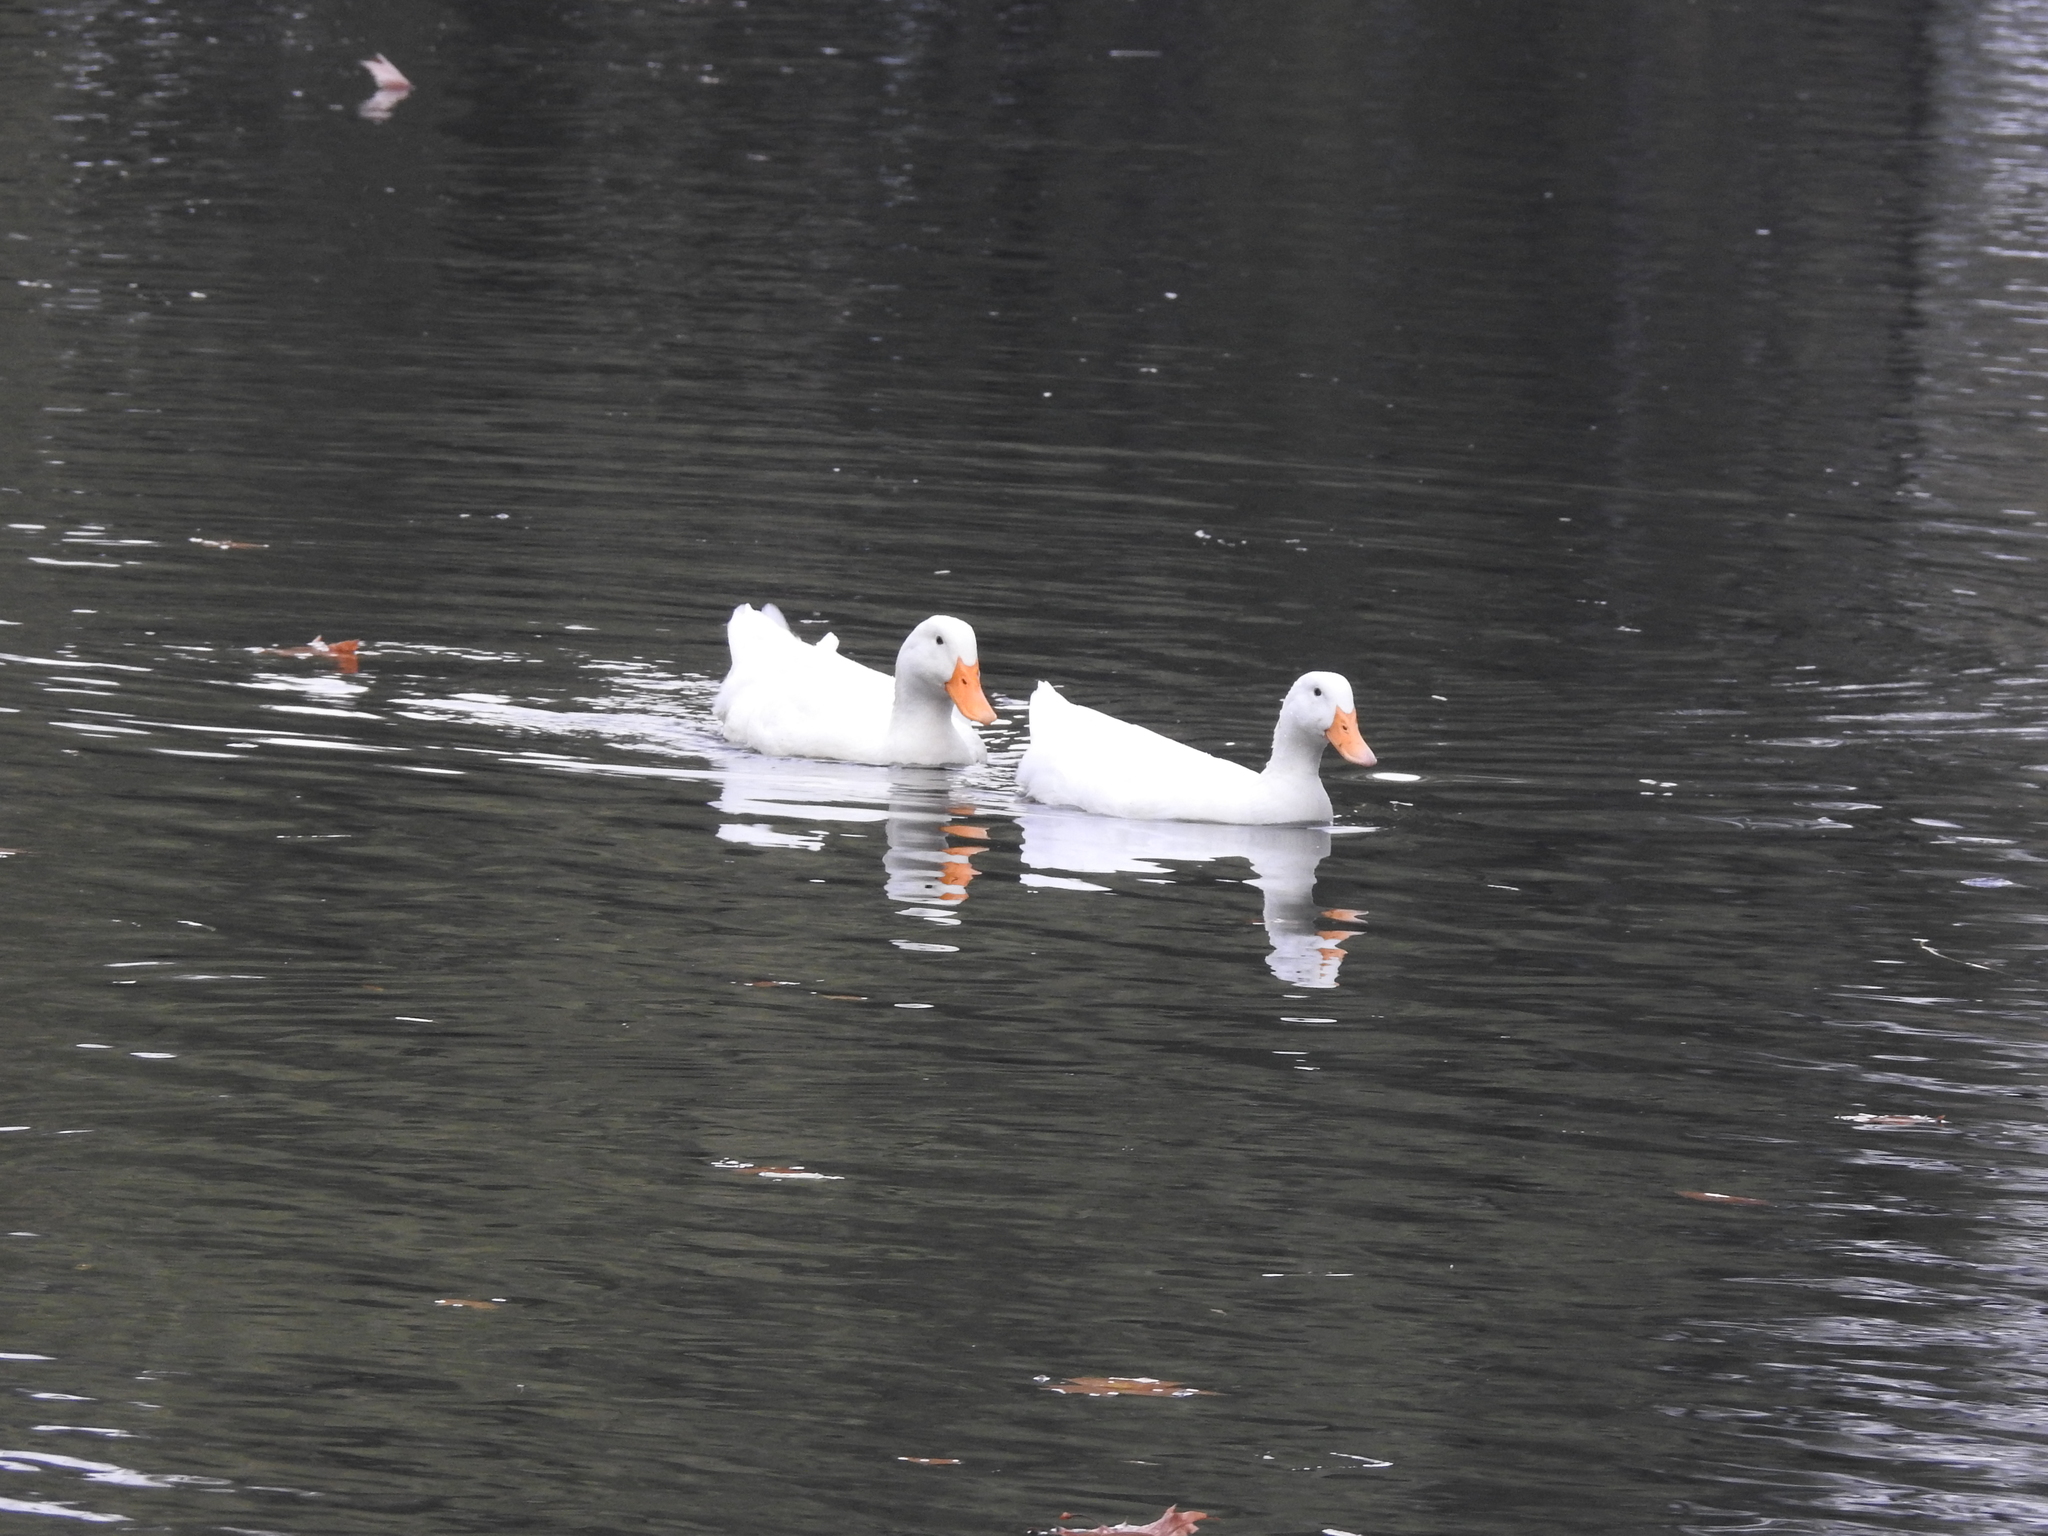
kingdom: Animalia
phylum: Chordata
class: Aves
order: Anseriformes
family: Anatidae
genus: Anas
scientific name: Anas platyrhynchos
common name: Mallard
